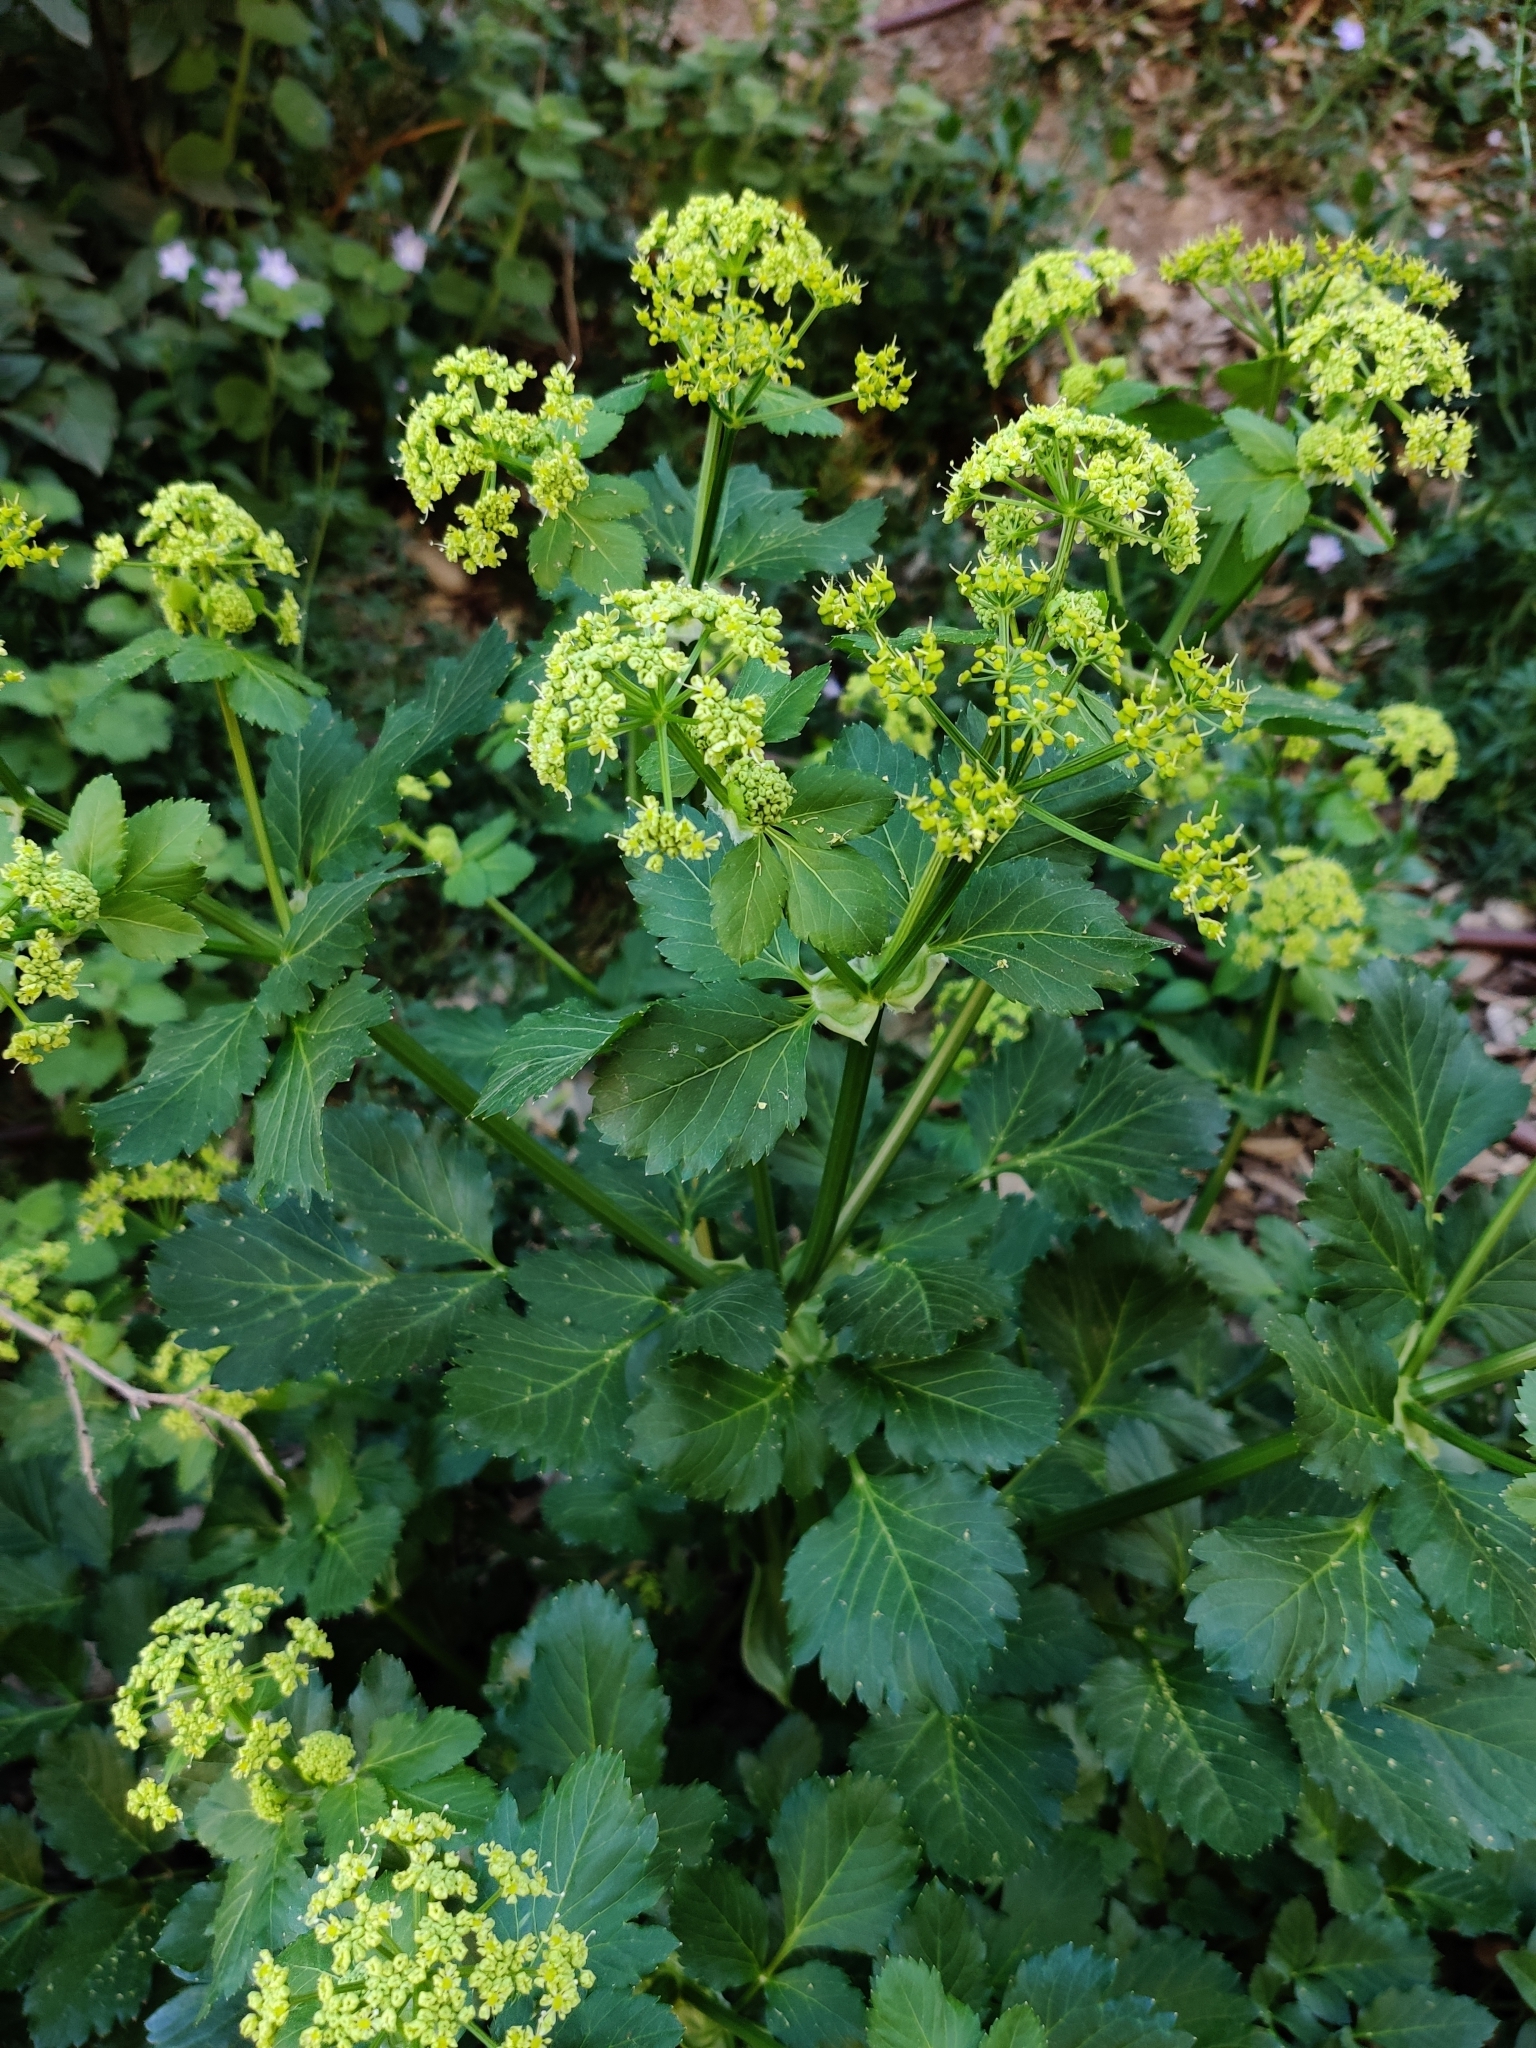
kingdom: Plantae
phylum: Tracheophyta
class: Magnoliopsida
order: Apiales
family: Apiaceae
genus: Smyrnium
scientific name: Smyrnium olusatrum
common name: Alexanders
